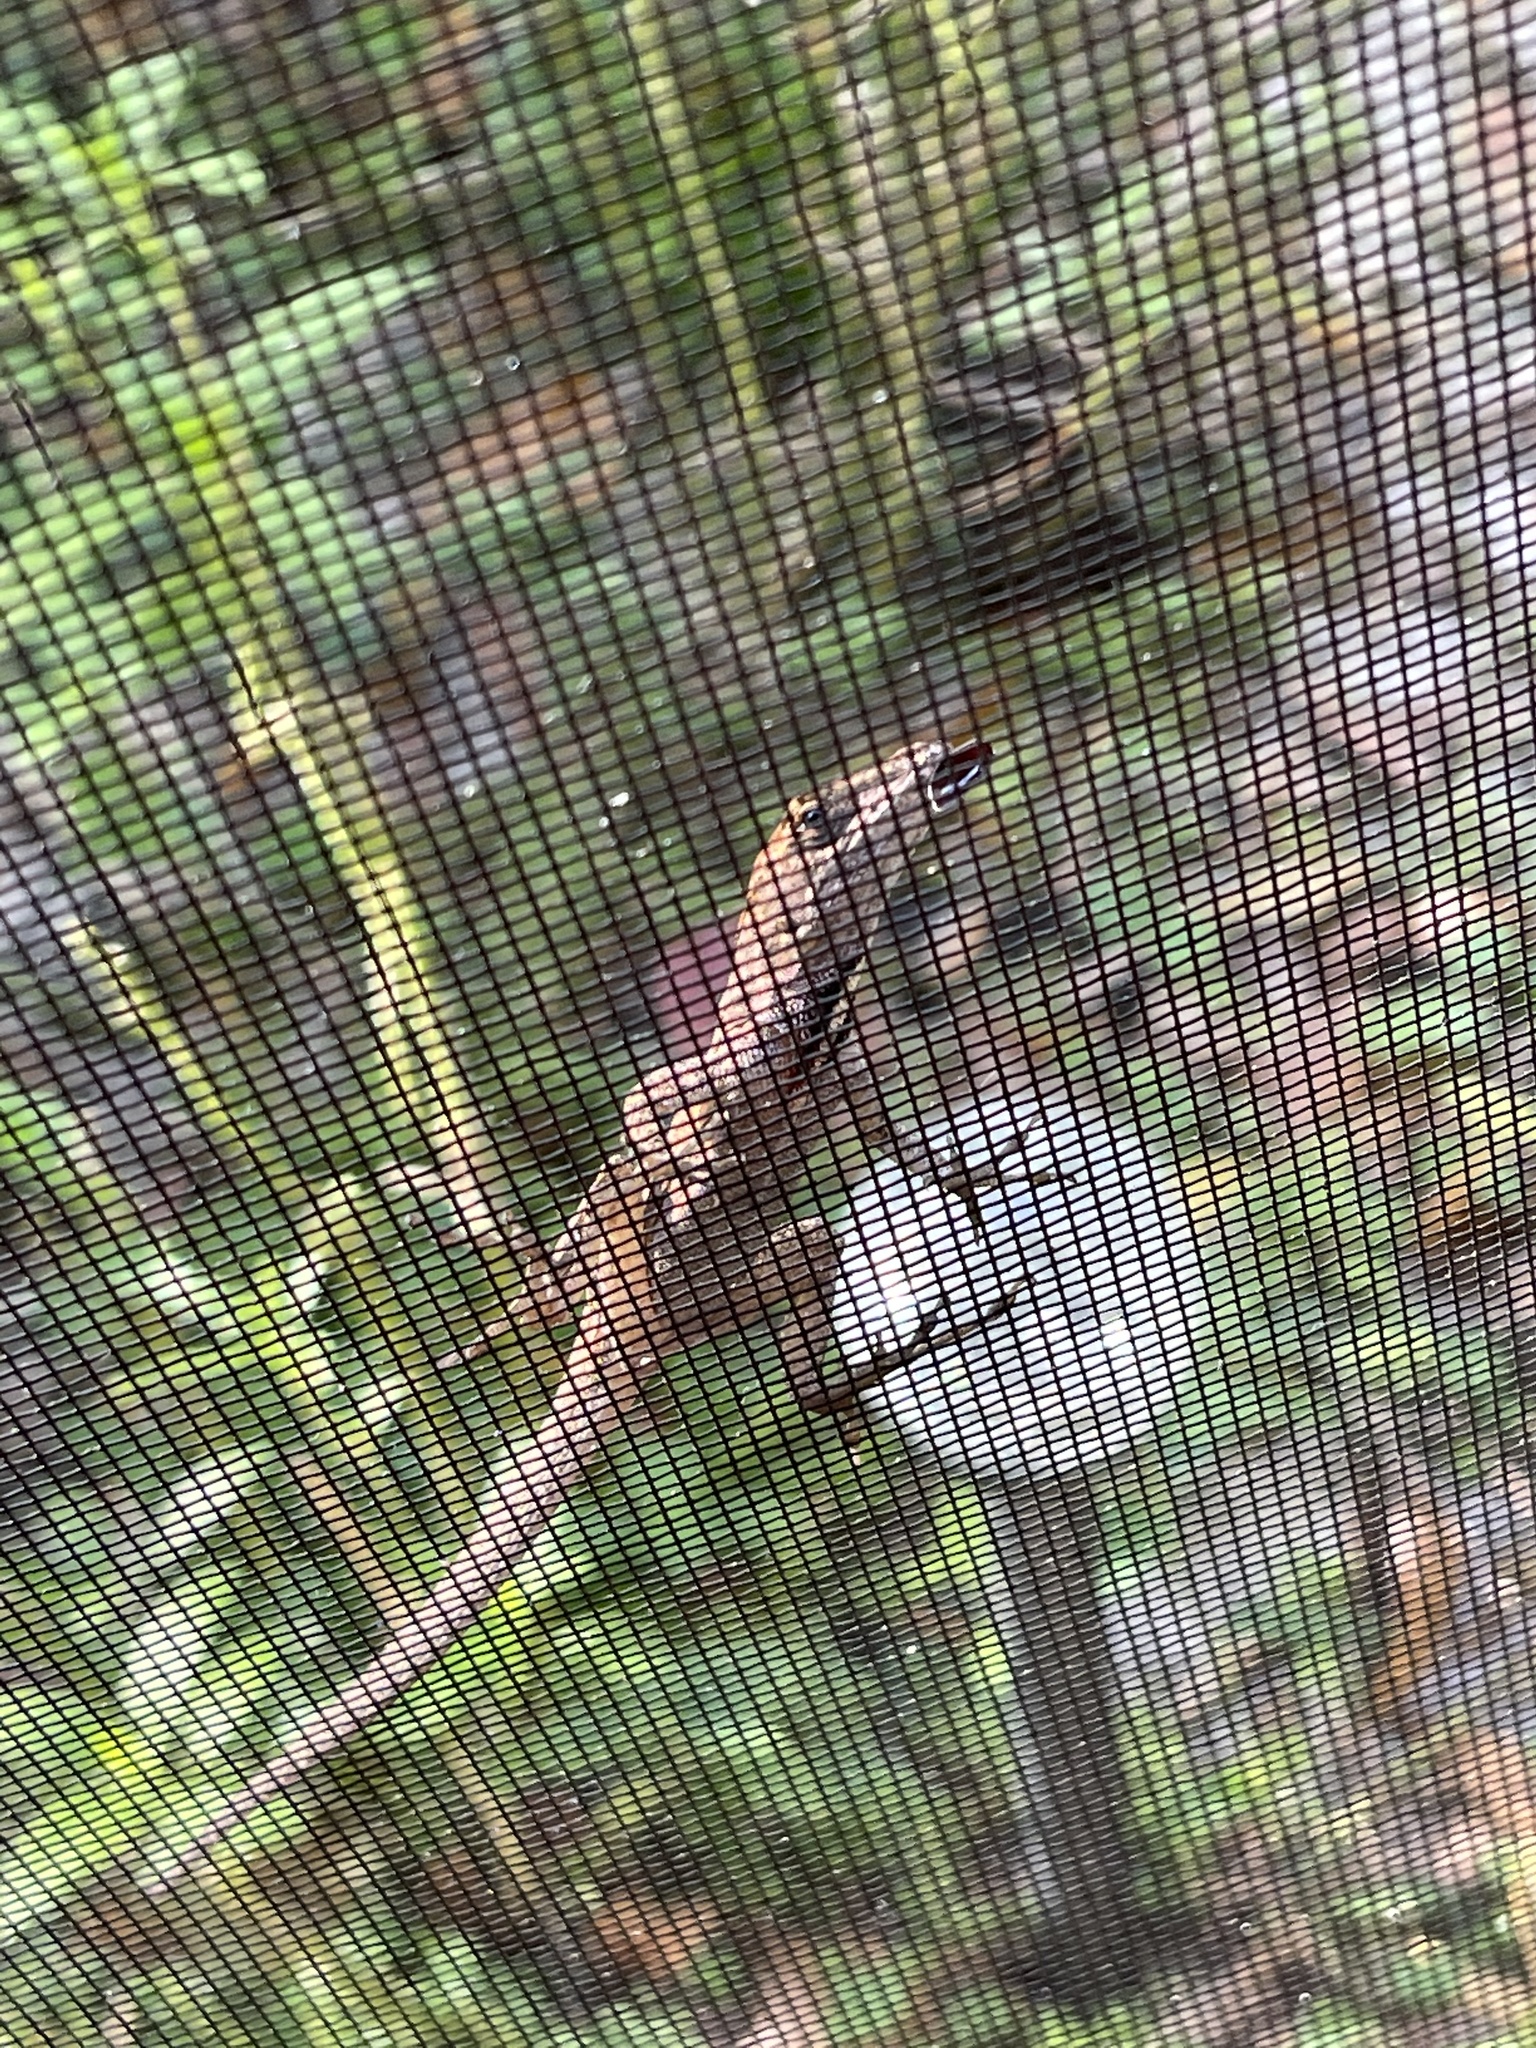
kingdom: Animalia
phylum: Chordata
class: Squamata
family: Dactyloidae
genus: Anolis
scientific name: Anolis sagrei
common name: Brown anole
